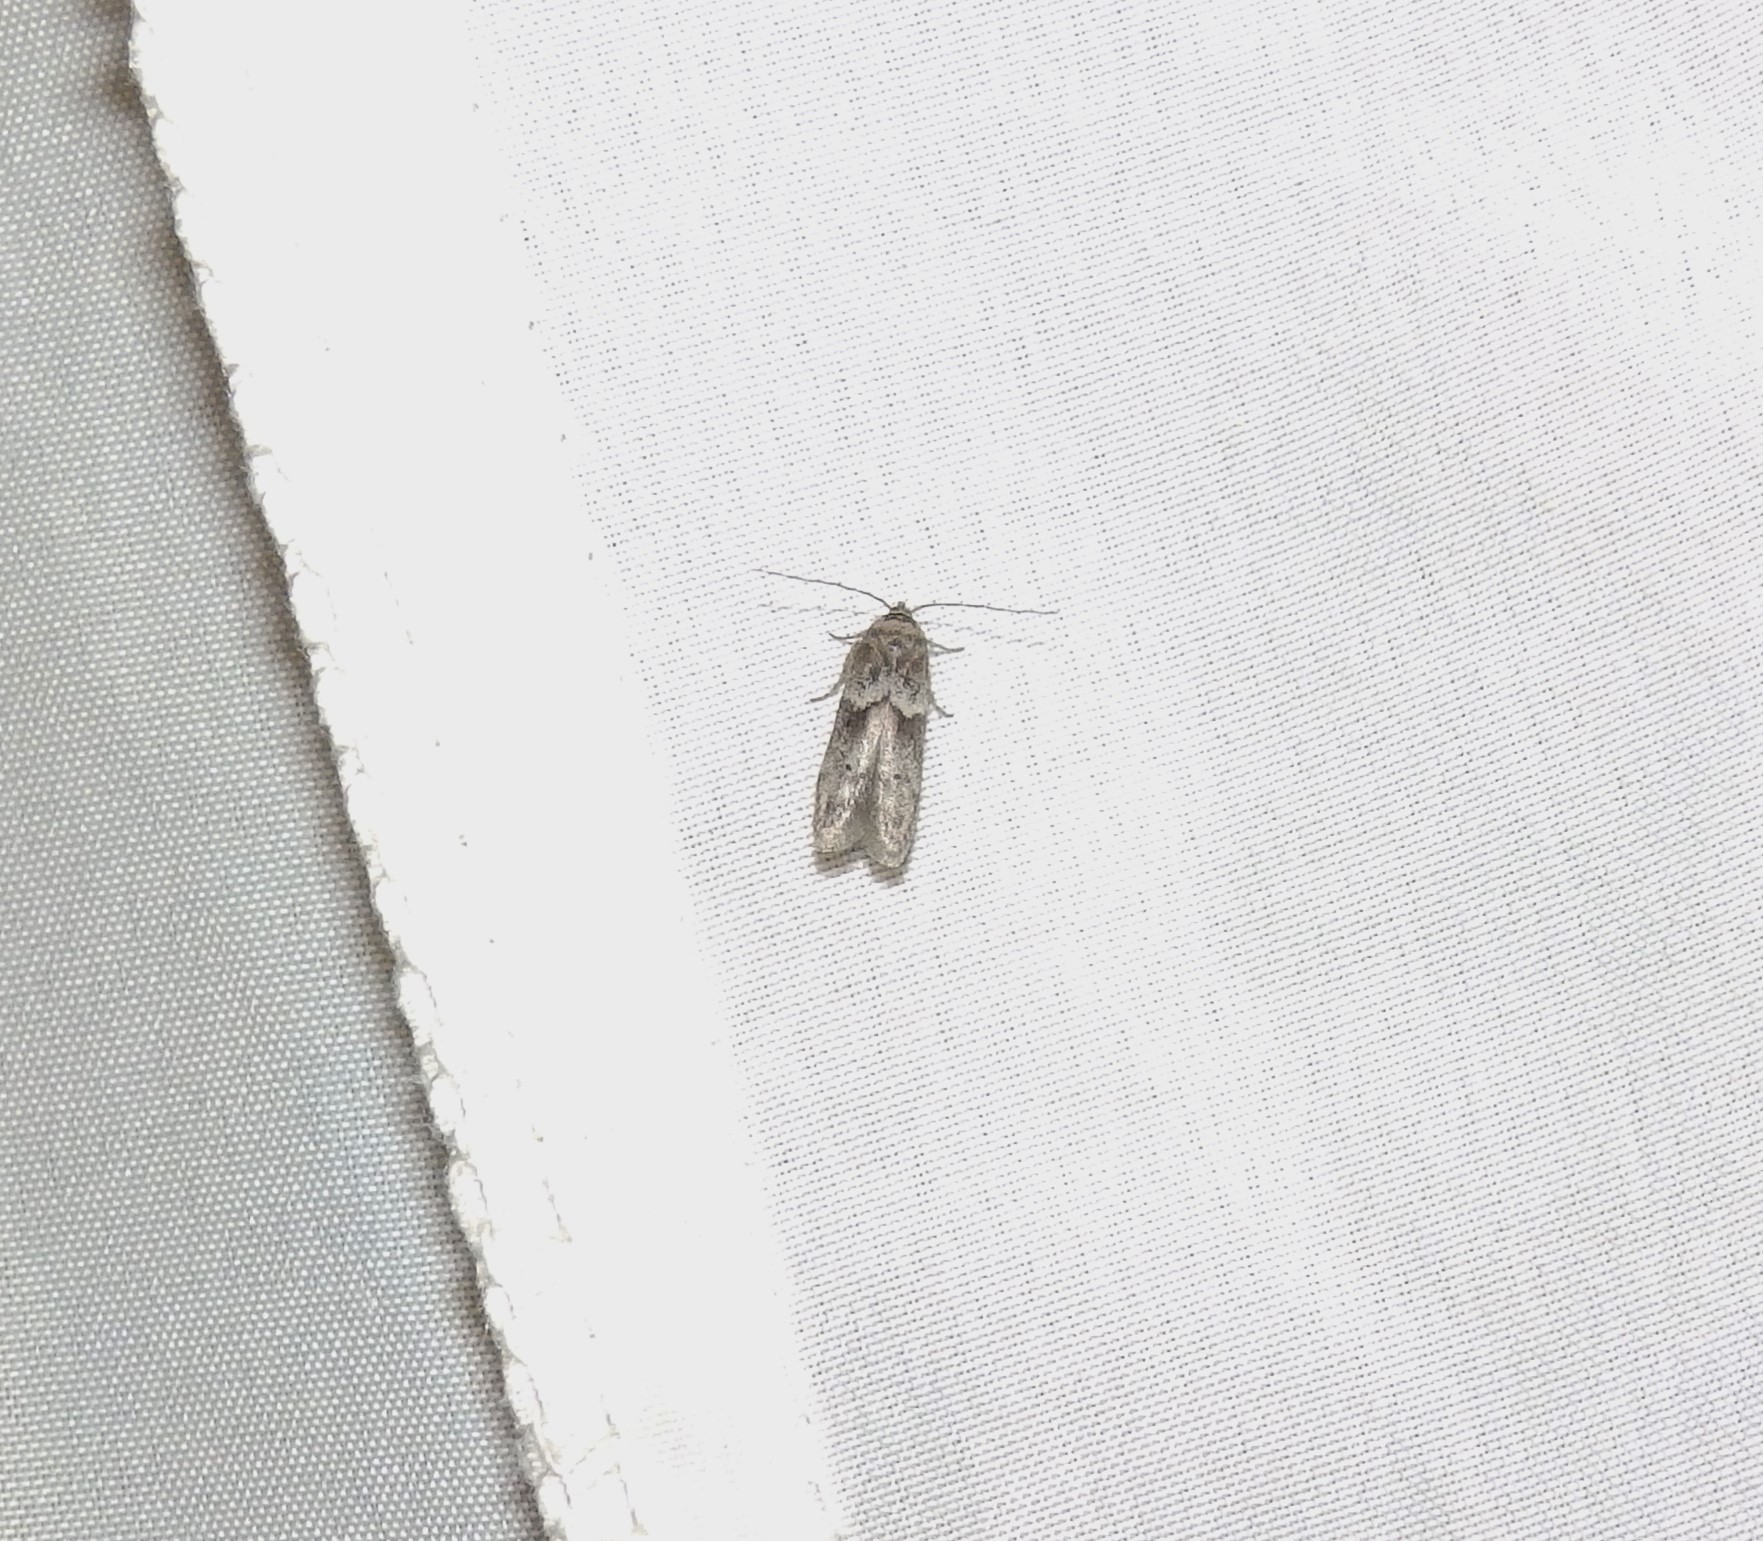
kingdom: Animalia
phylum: Arthropoda
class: Insecta
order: Lepidoptera
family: Blastobasidae
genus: Blastobasis
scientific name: Blastobasis glandulella
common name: Acorn moth
